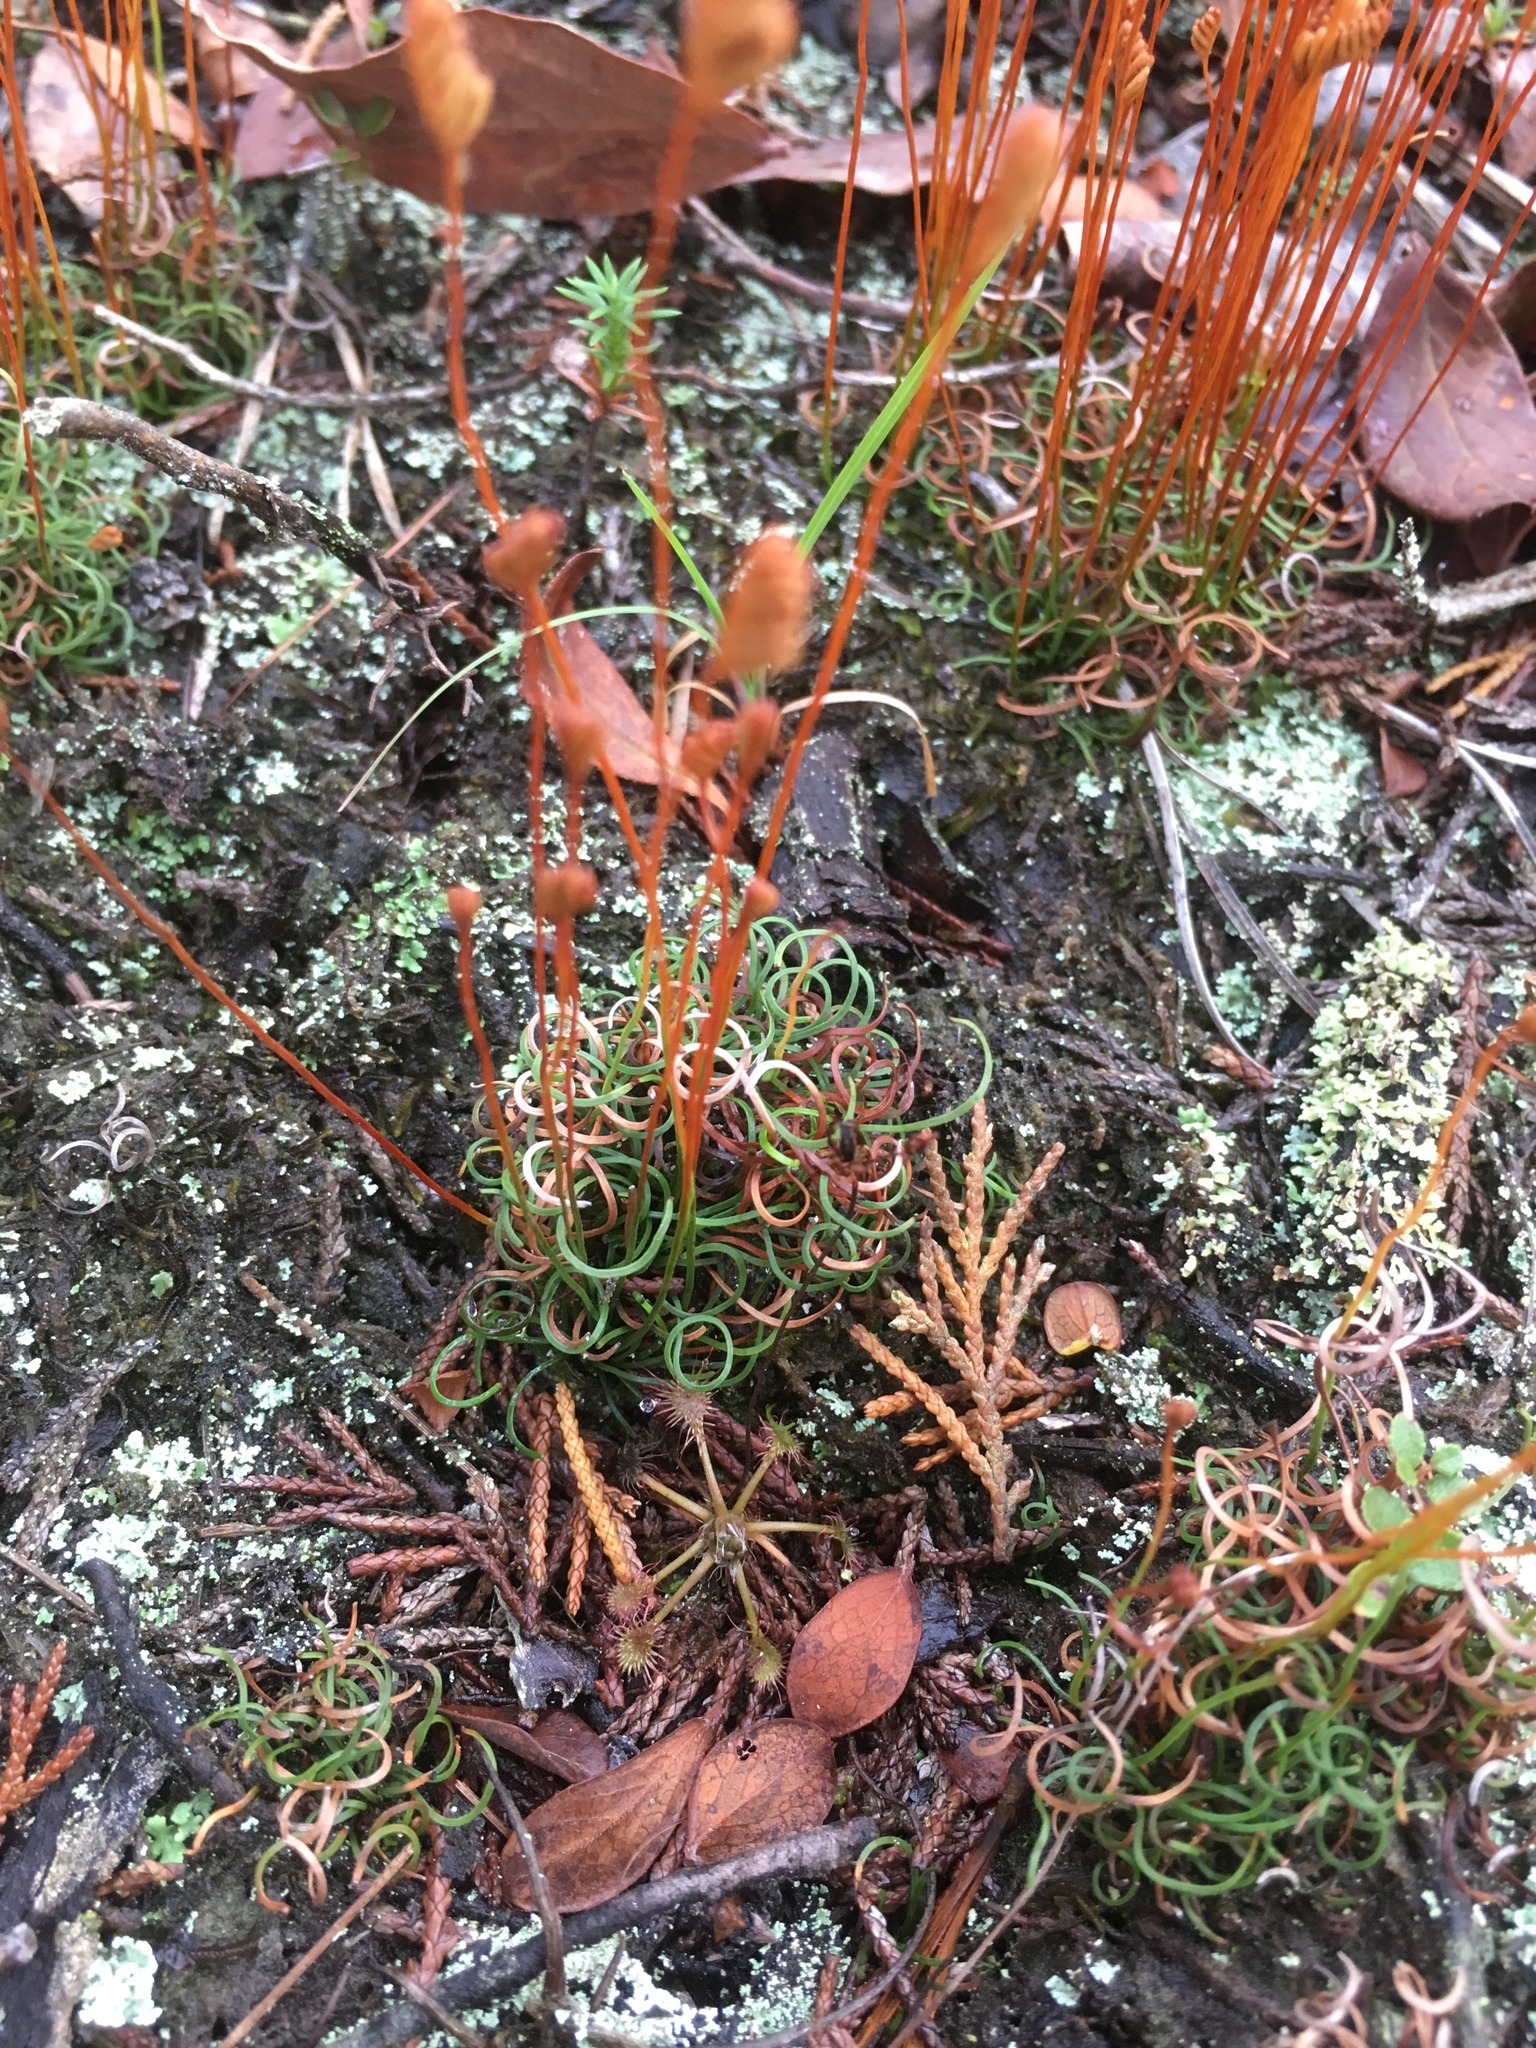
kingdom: Plantae
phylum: Tracheophyta
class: Polypodiopsida
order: Schizaeales
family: Schizaeaceae
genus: Schizaea
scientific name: Schizaea pusilla
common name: Curly-grass fern
